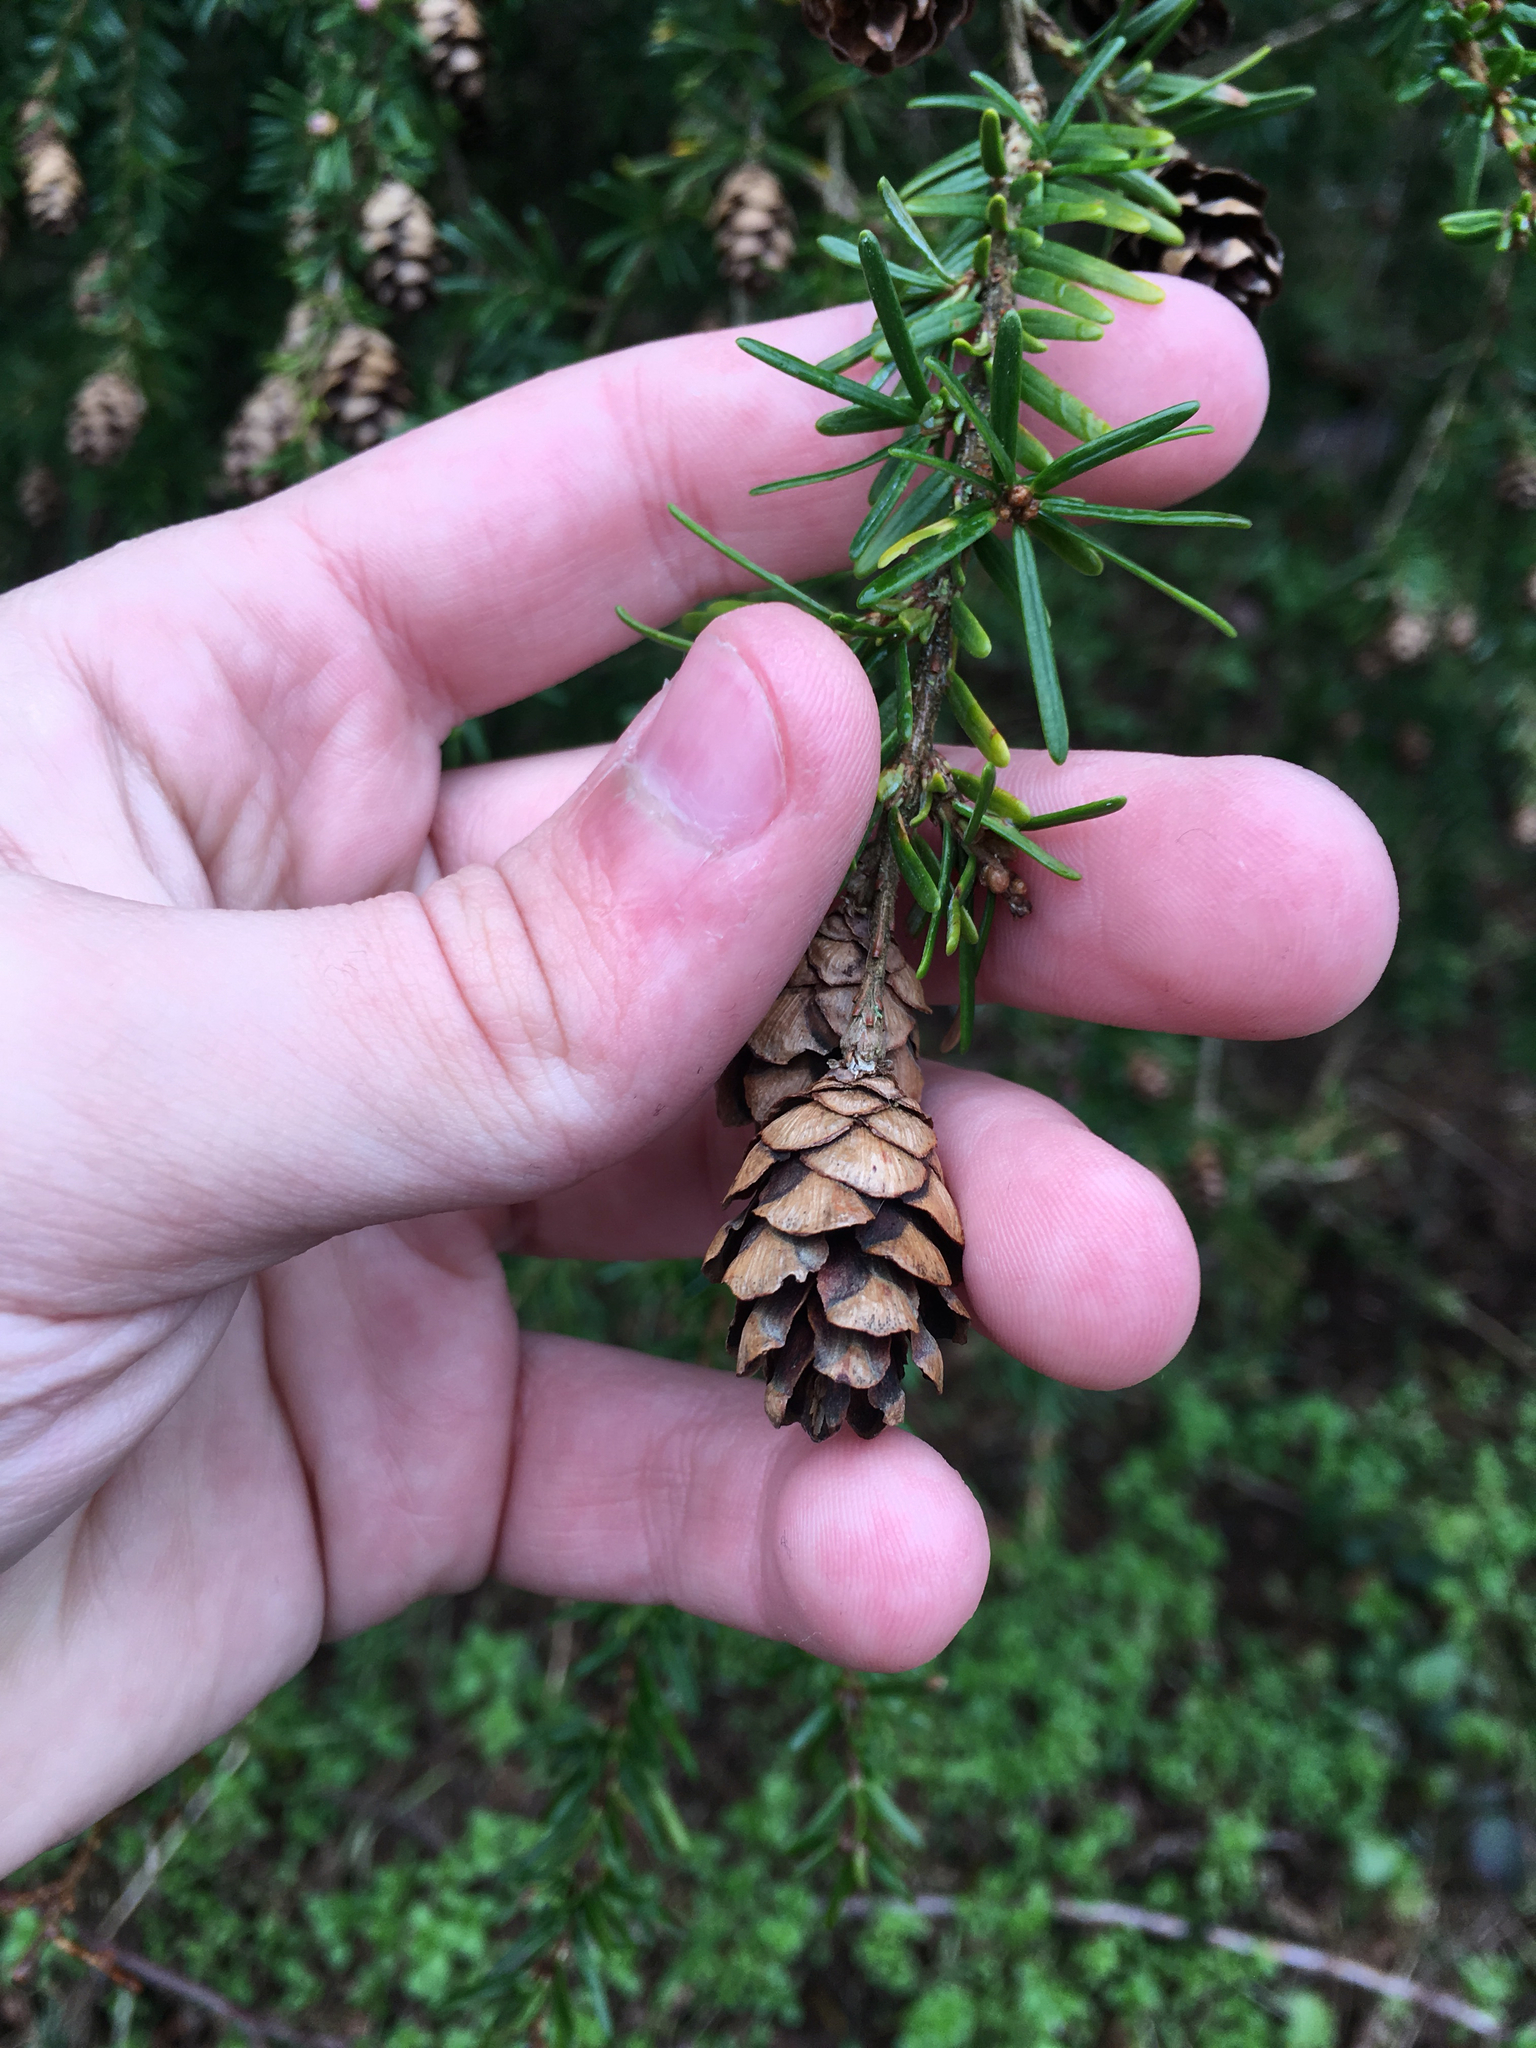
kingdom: Plantae
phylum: Tracheophyta
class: Pinopsida
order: Pinales
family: Pinaceae
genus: Tsuga
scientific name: Tsuga heterophylla
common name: Western hemlock
